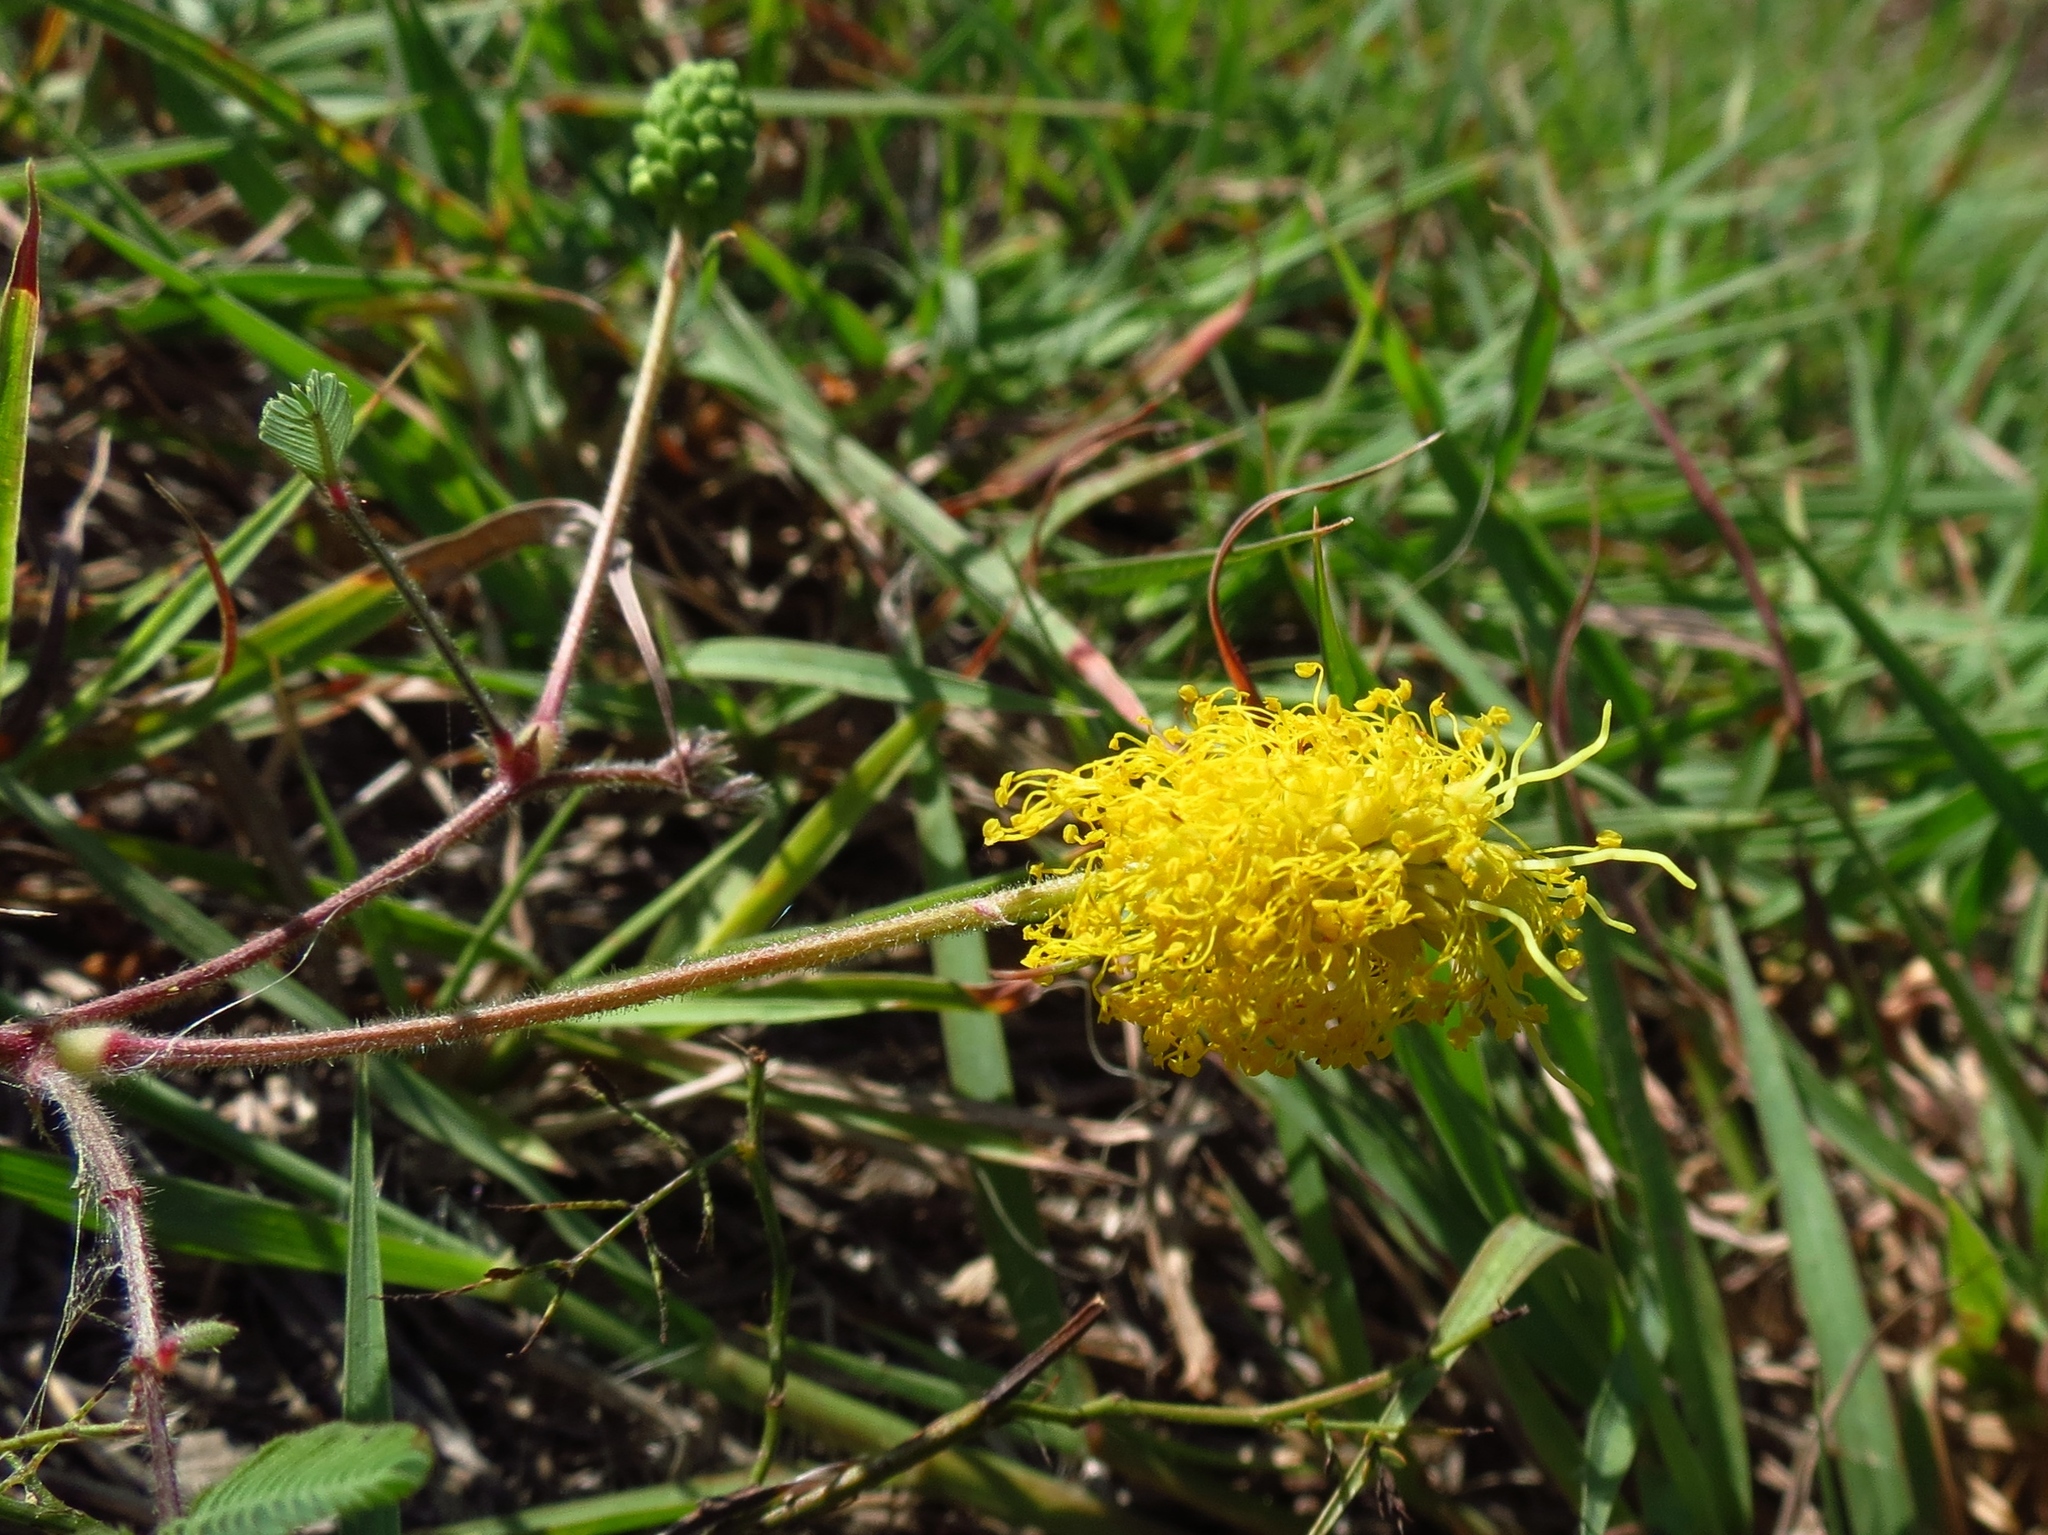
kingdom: Plantae
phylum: Tracheophyta
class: Magnoliopsida
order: Fabales
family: Fabaceae
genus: Neptunia
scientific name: Neptunia lutea
